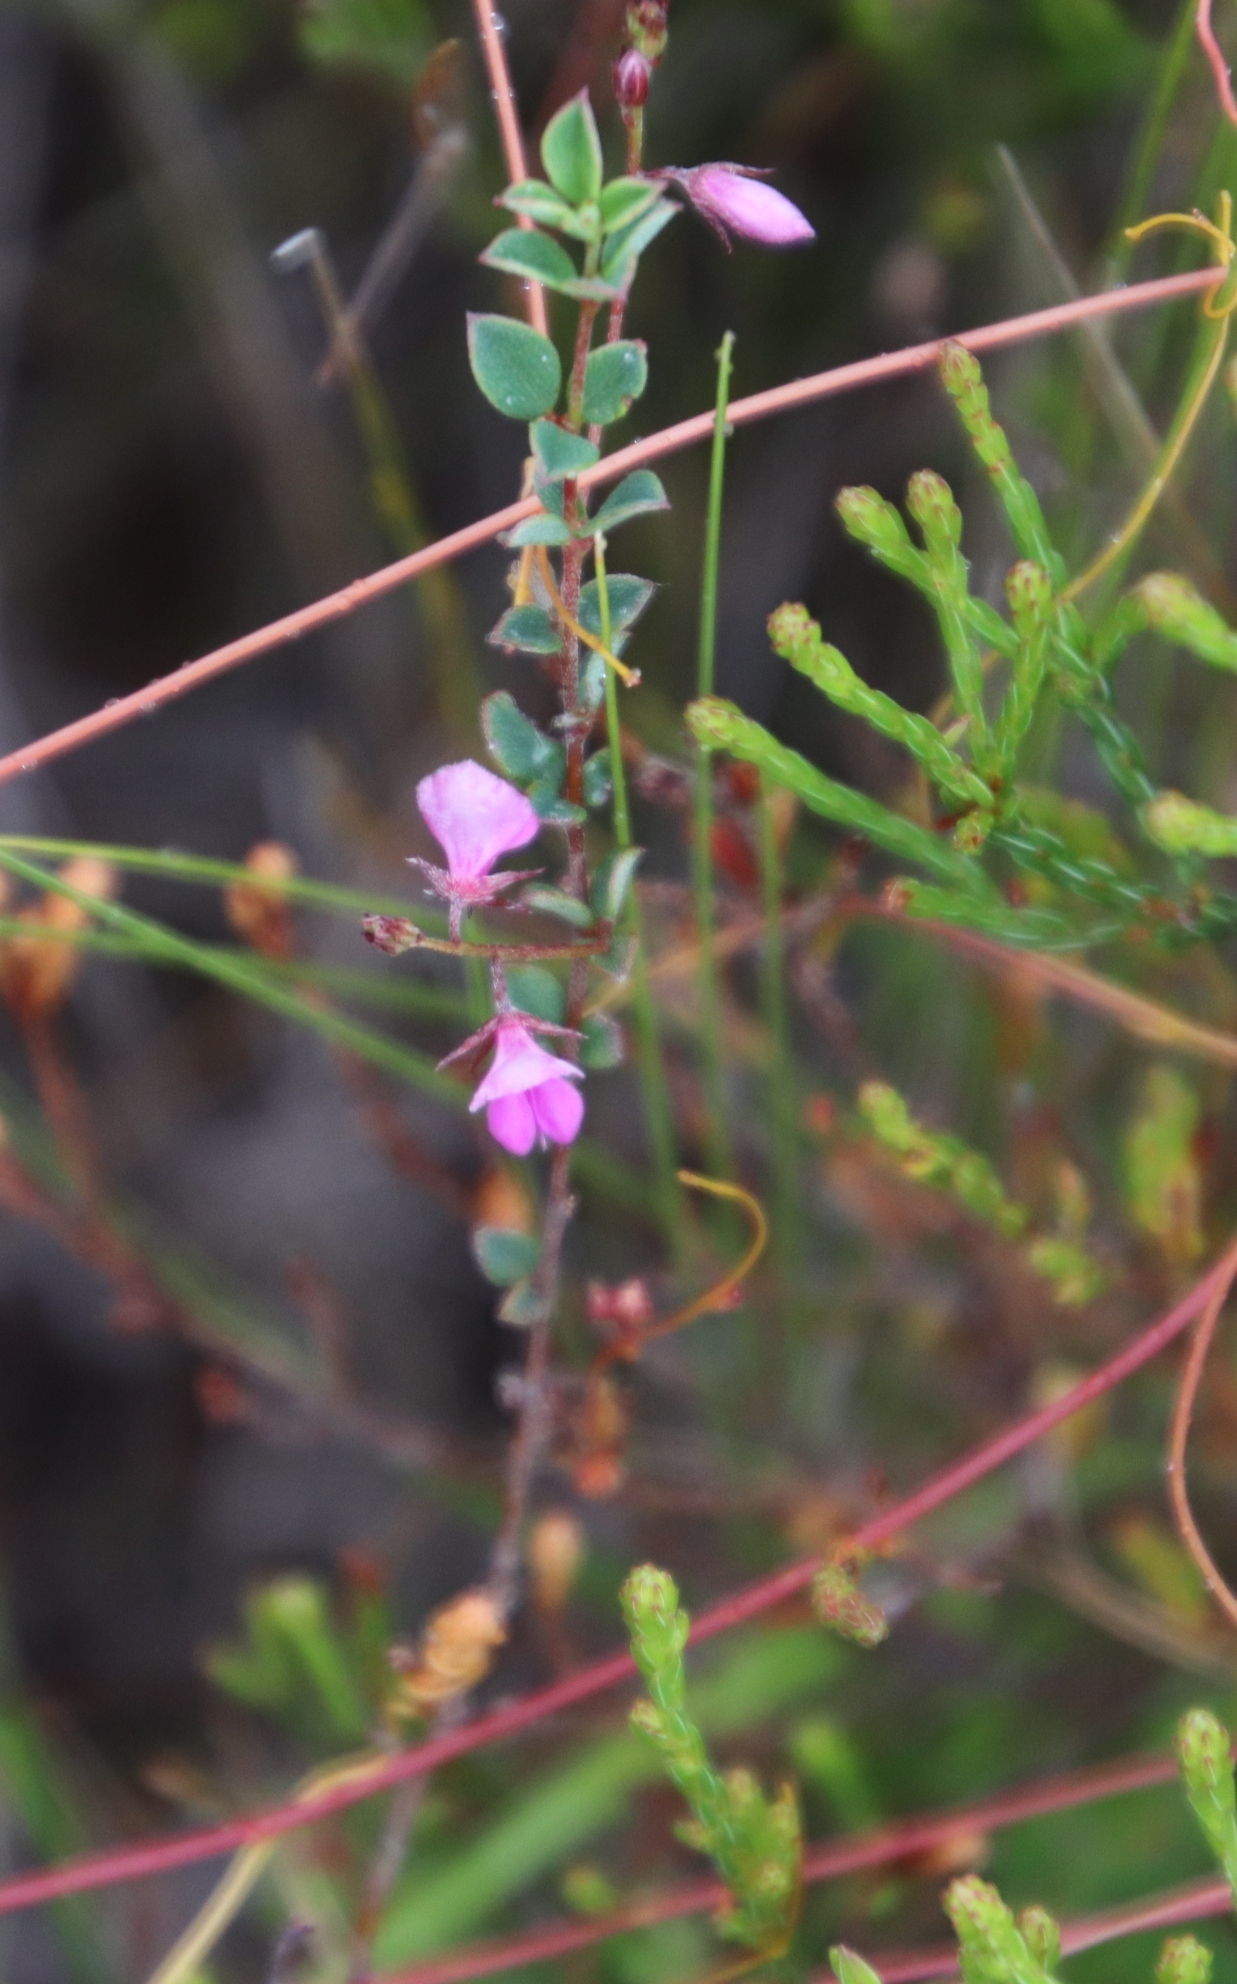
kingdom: Plantae
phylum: Tracheophyta
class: Magnoliopsida
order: Fabales
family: Fabaceae
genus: Indigofera
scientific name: Indigofera sarmentosa
